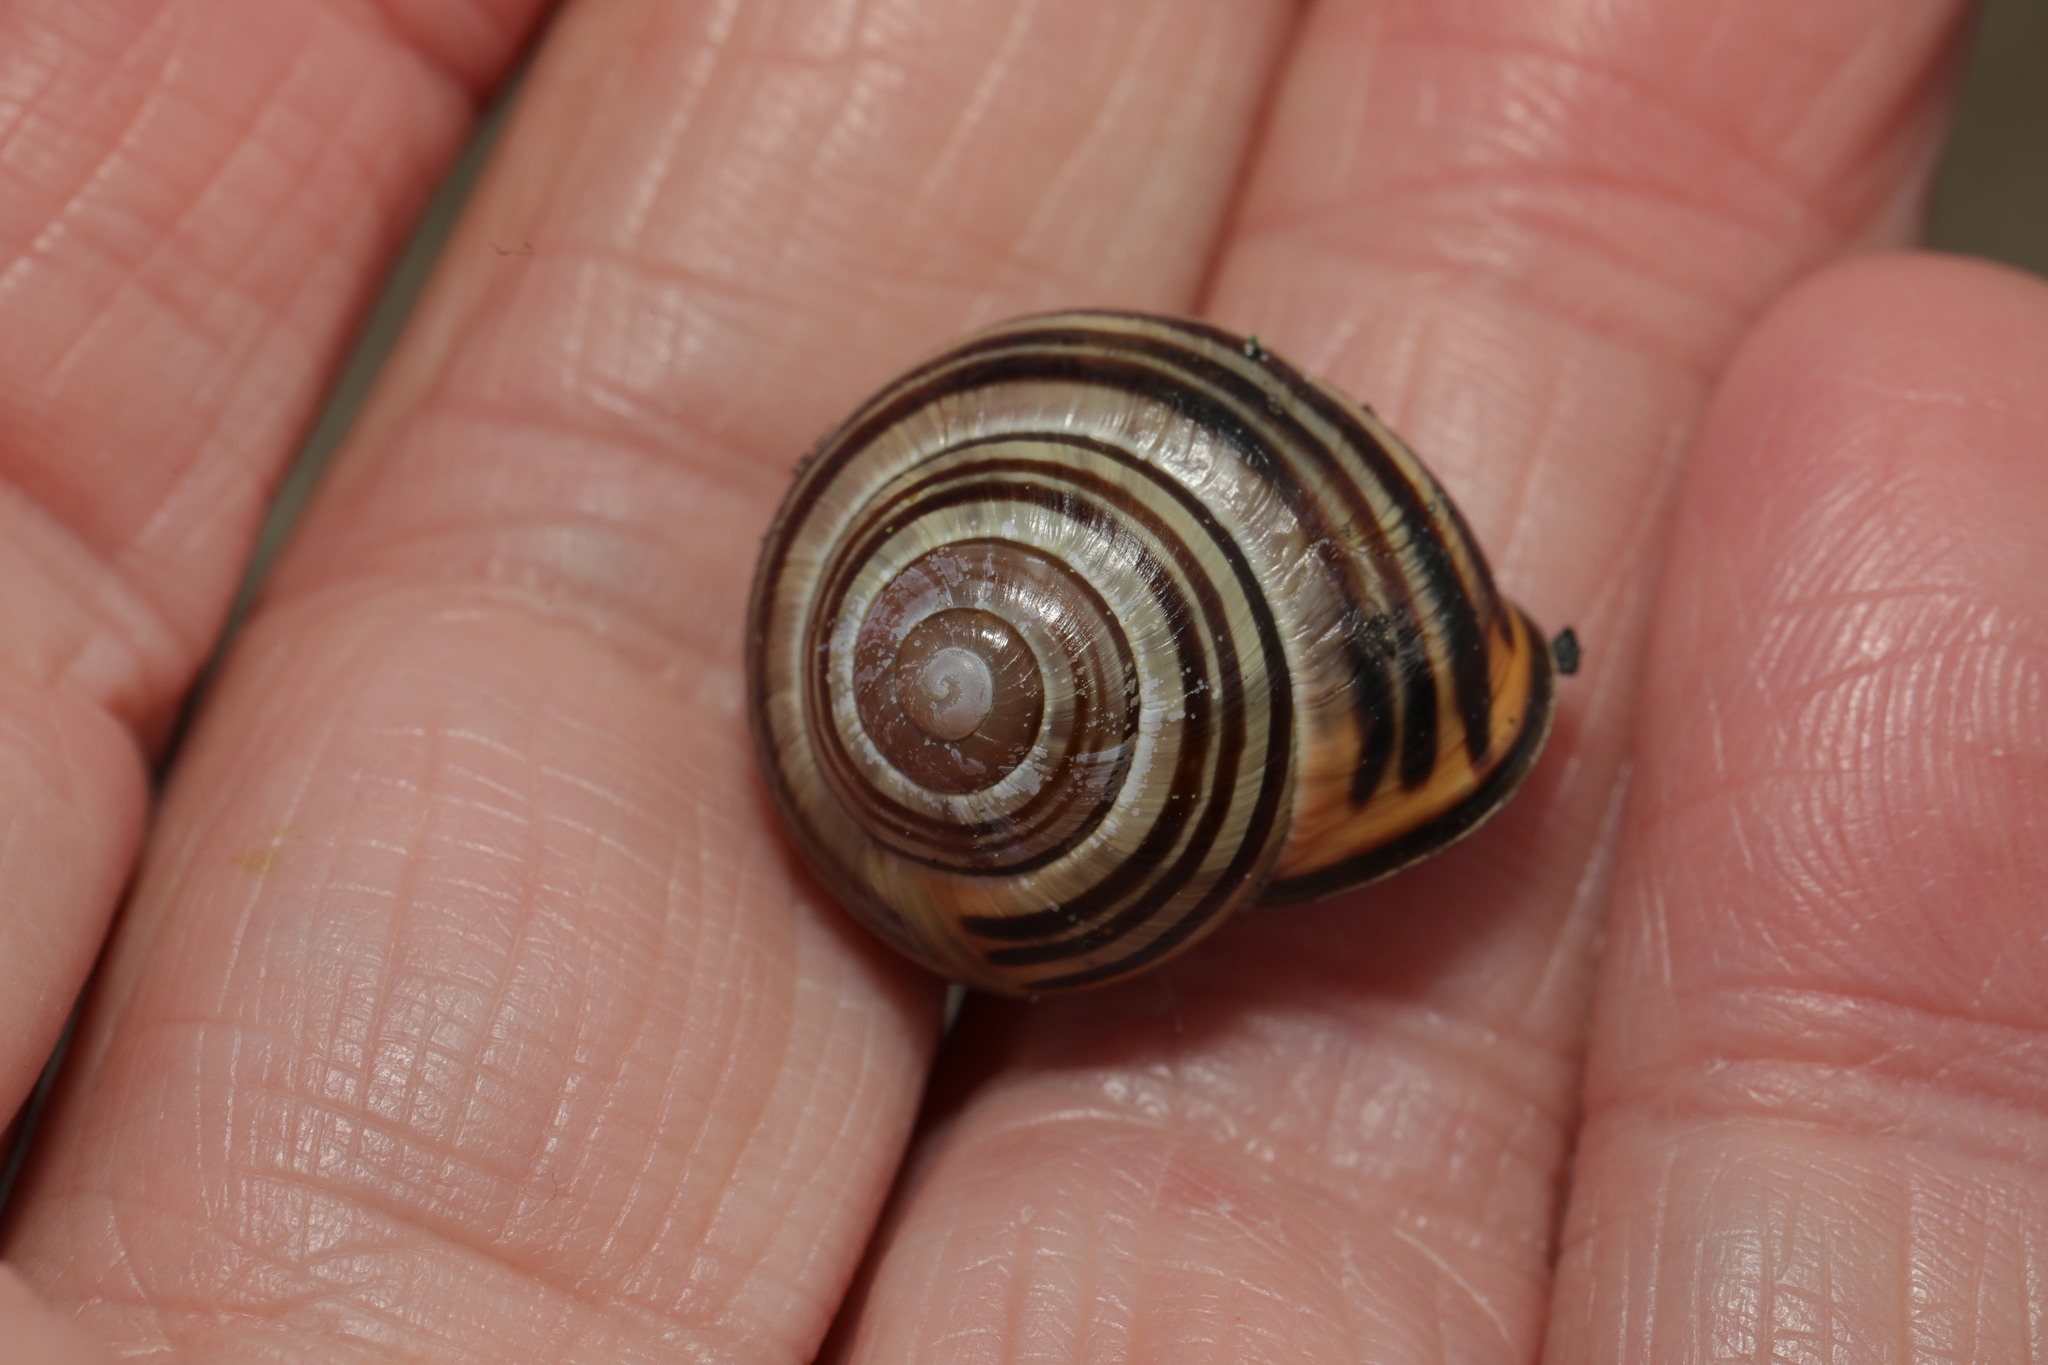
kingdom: Animalia
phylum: Mollusca
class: Gastropoda
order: Stylommatophora
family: Helicidae
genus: Cepaea
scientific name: Cepaea nemoralis
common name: Grovesnail
